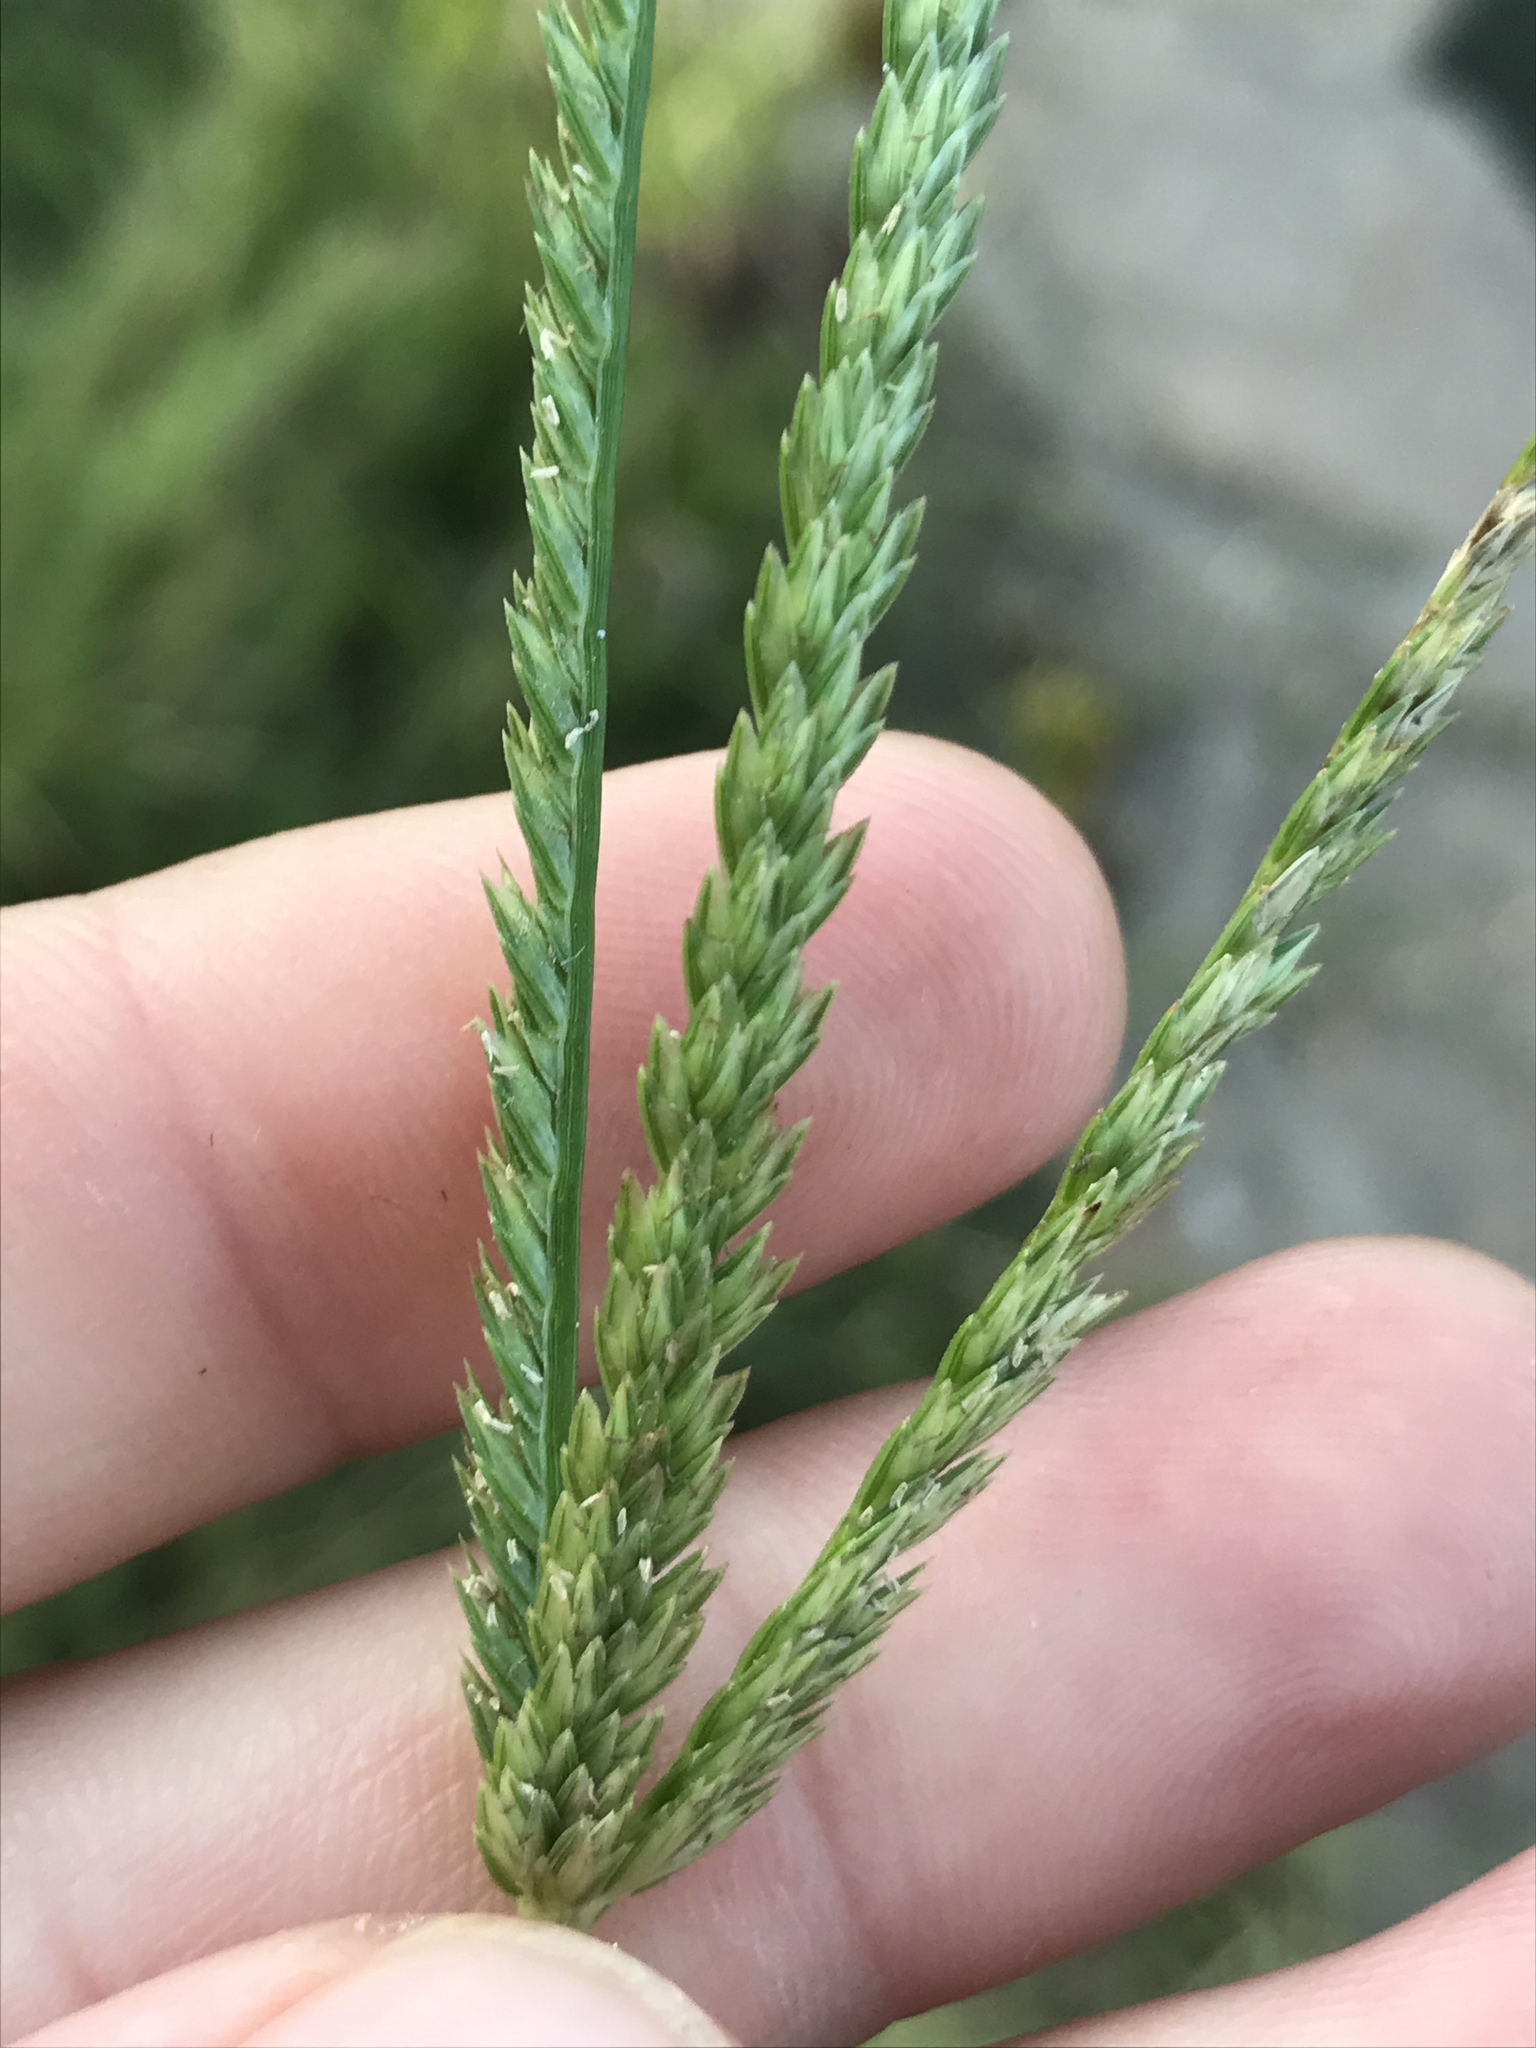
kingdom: Plantae
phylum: Tracheophyta
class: Liliopsida
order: Poales
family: Poaceae
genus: Eleusine
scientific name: Eleusine indica
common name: Yard-grass
